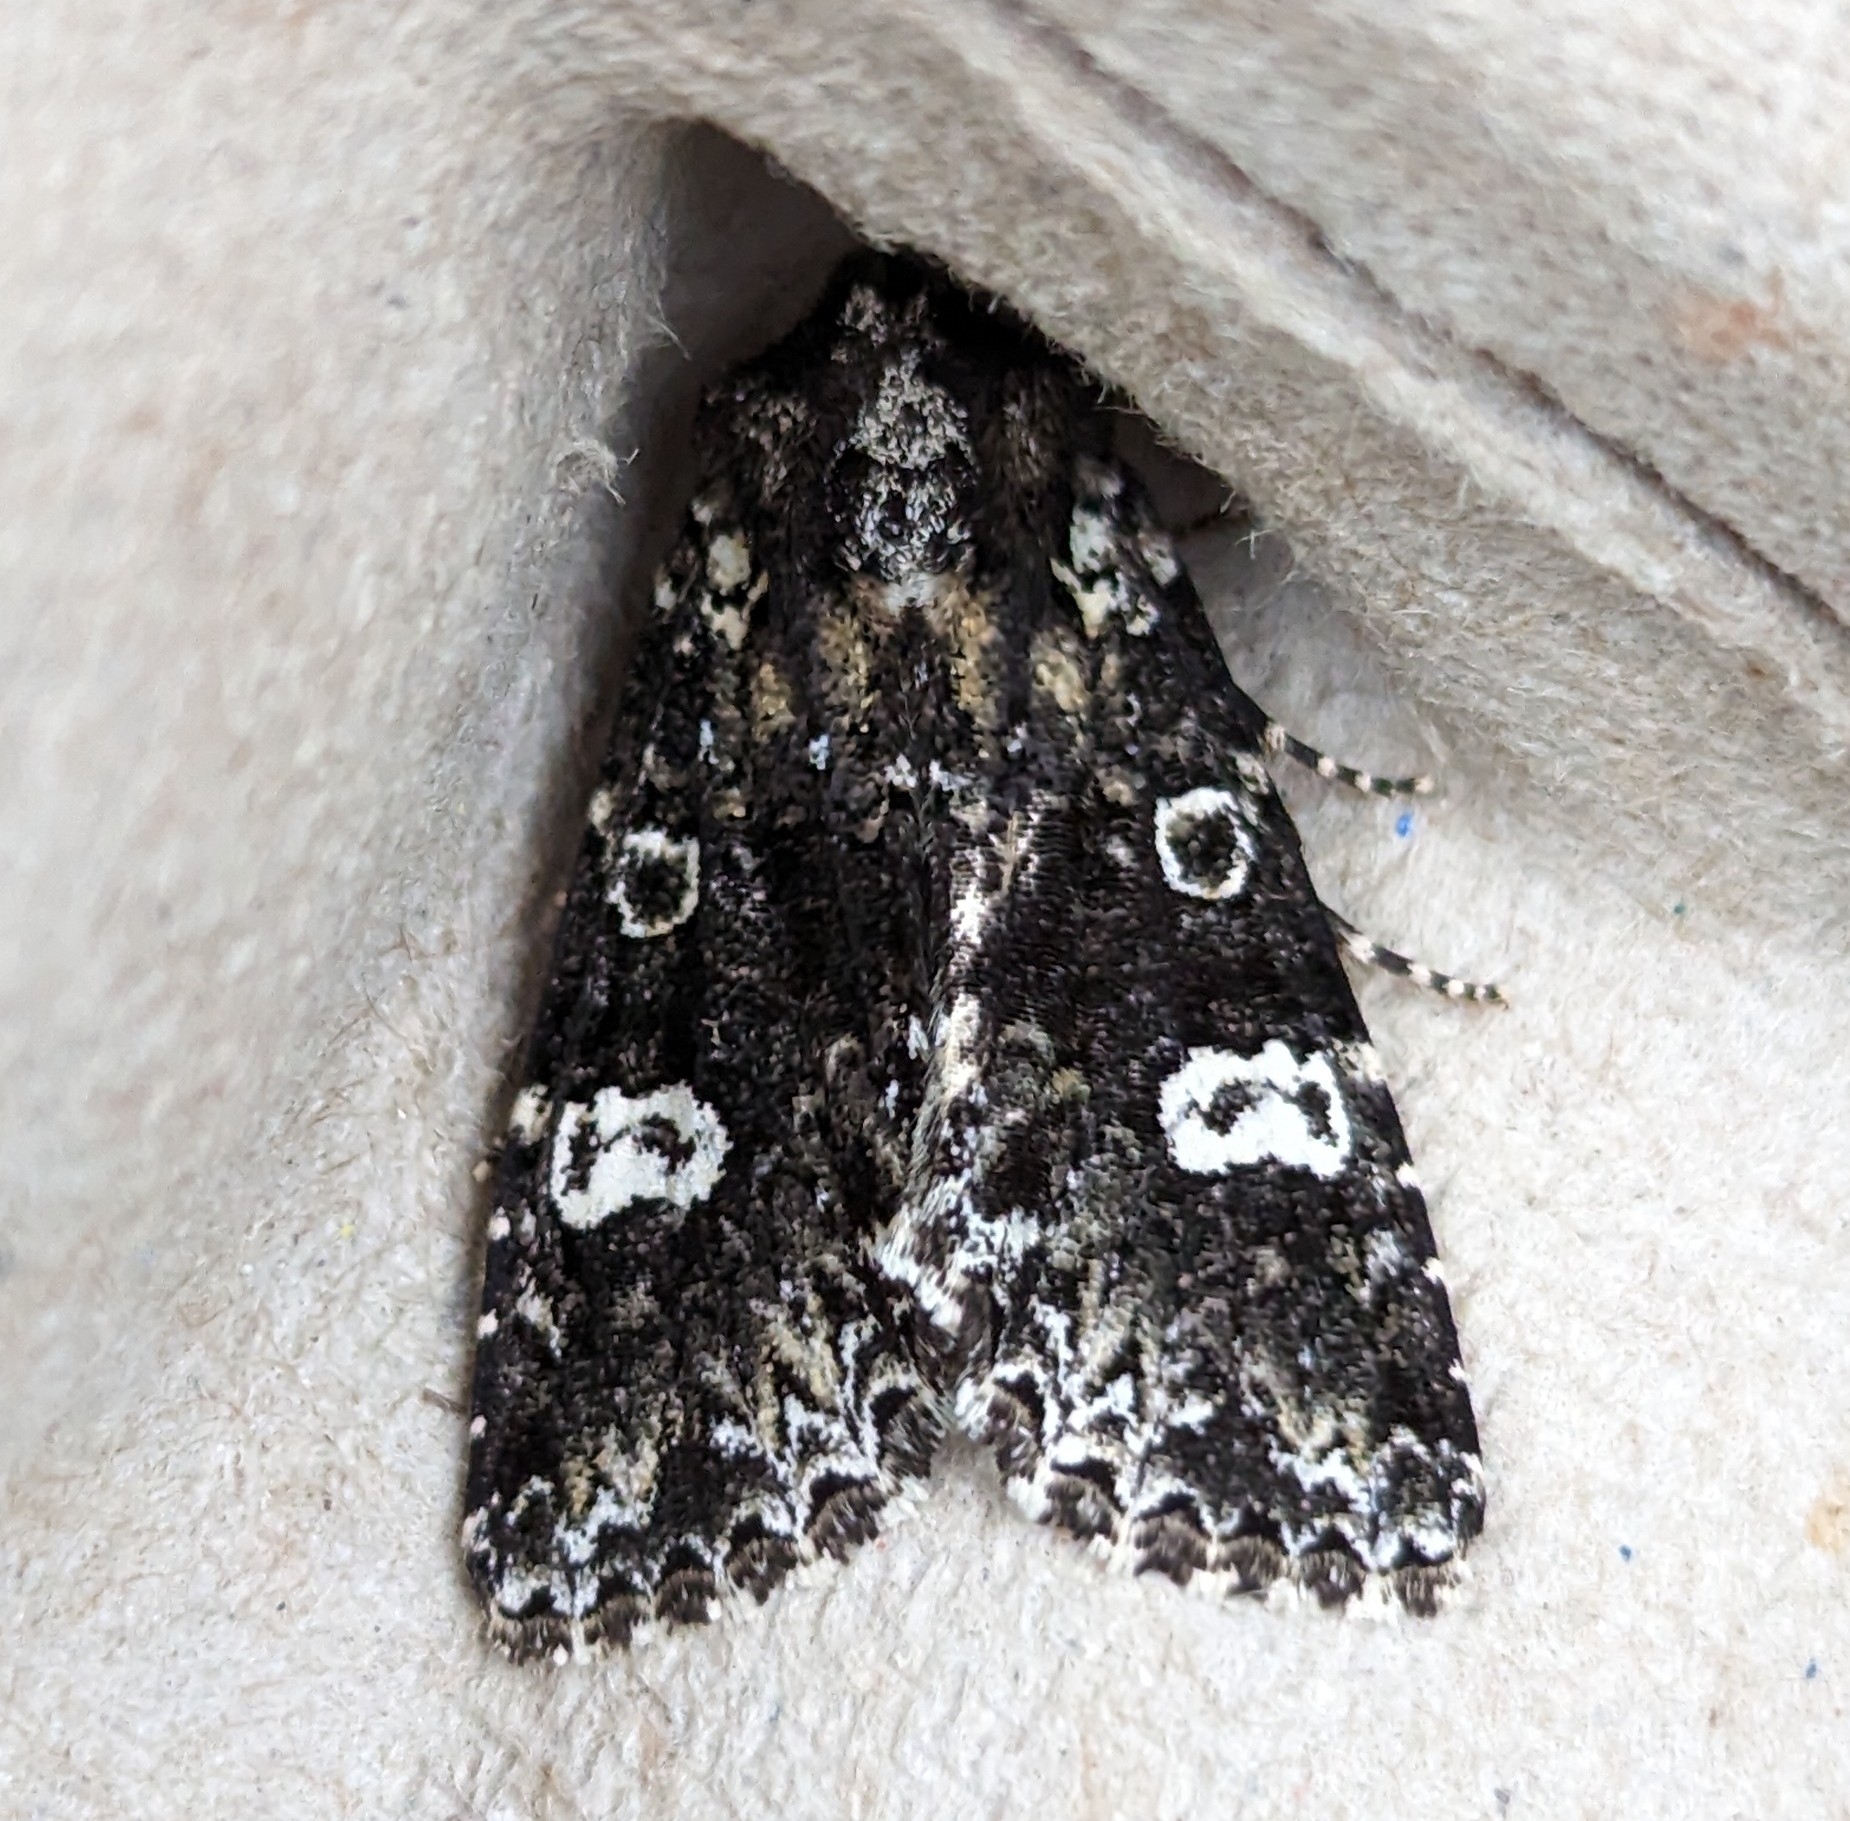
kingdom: Animalia
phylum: Arthropoda
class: Insecta
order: Lepidoptera
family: Noctuidae
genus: Melanchra
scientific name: Melanchra adjuncta
